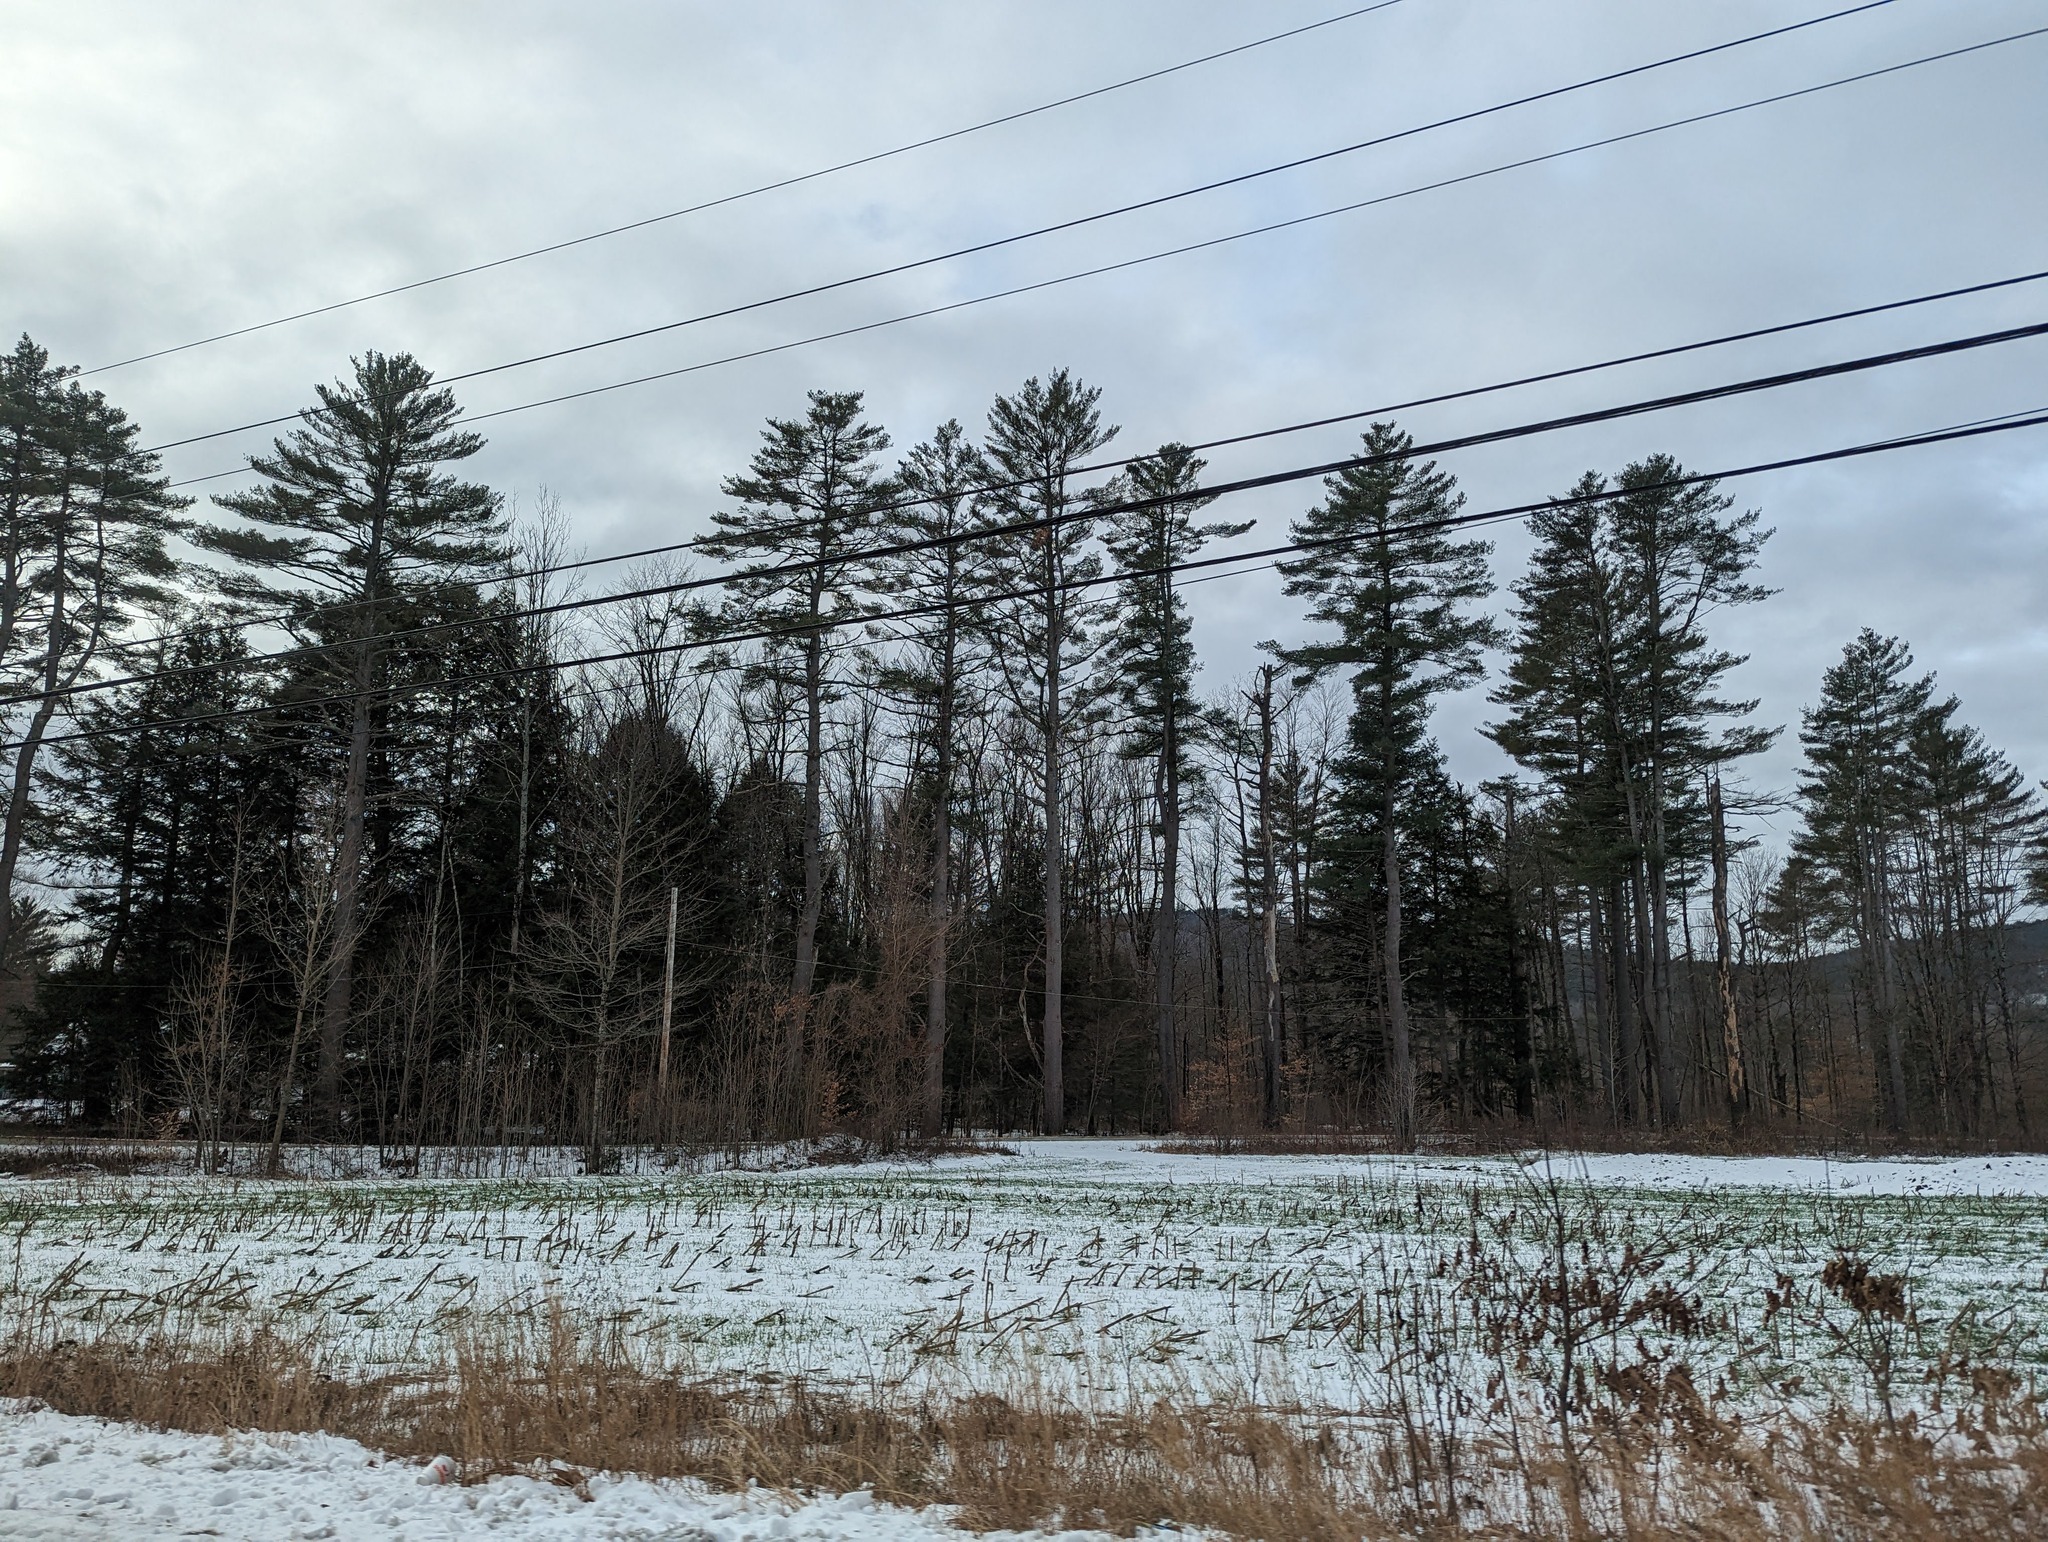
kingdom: Plantae
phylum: Tracheophyta
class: Pinopsida
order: Pinales
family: Pinaceae
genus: Pinus
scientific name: Pinus strobus
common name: Weymouth pine
